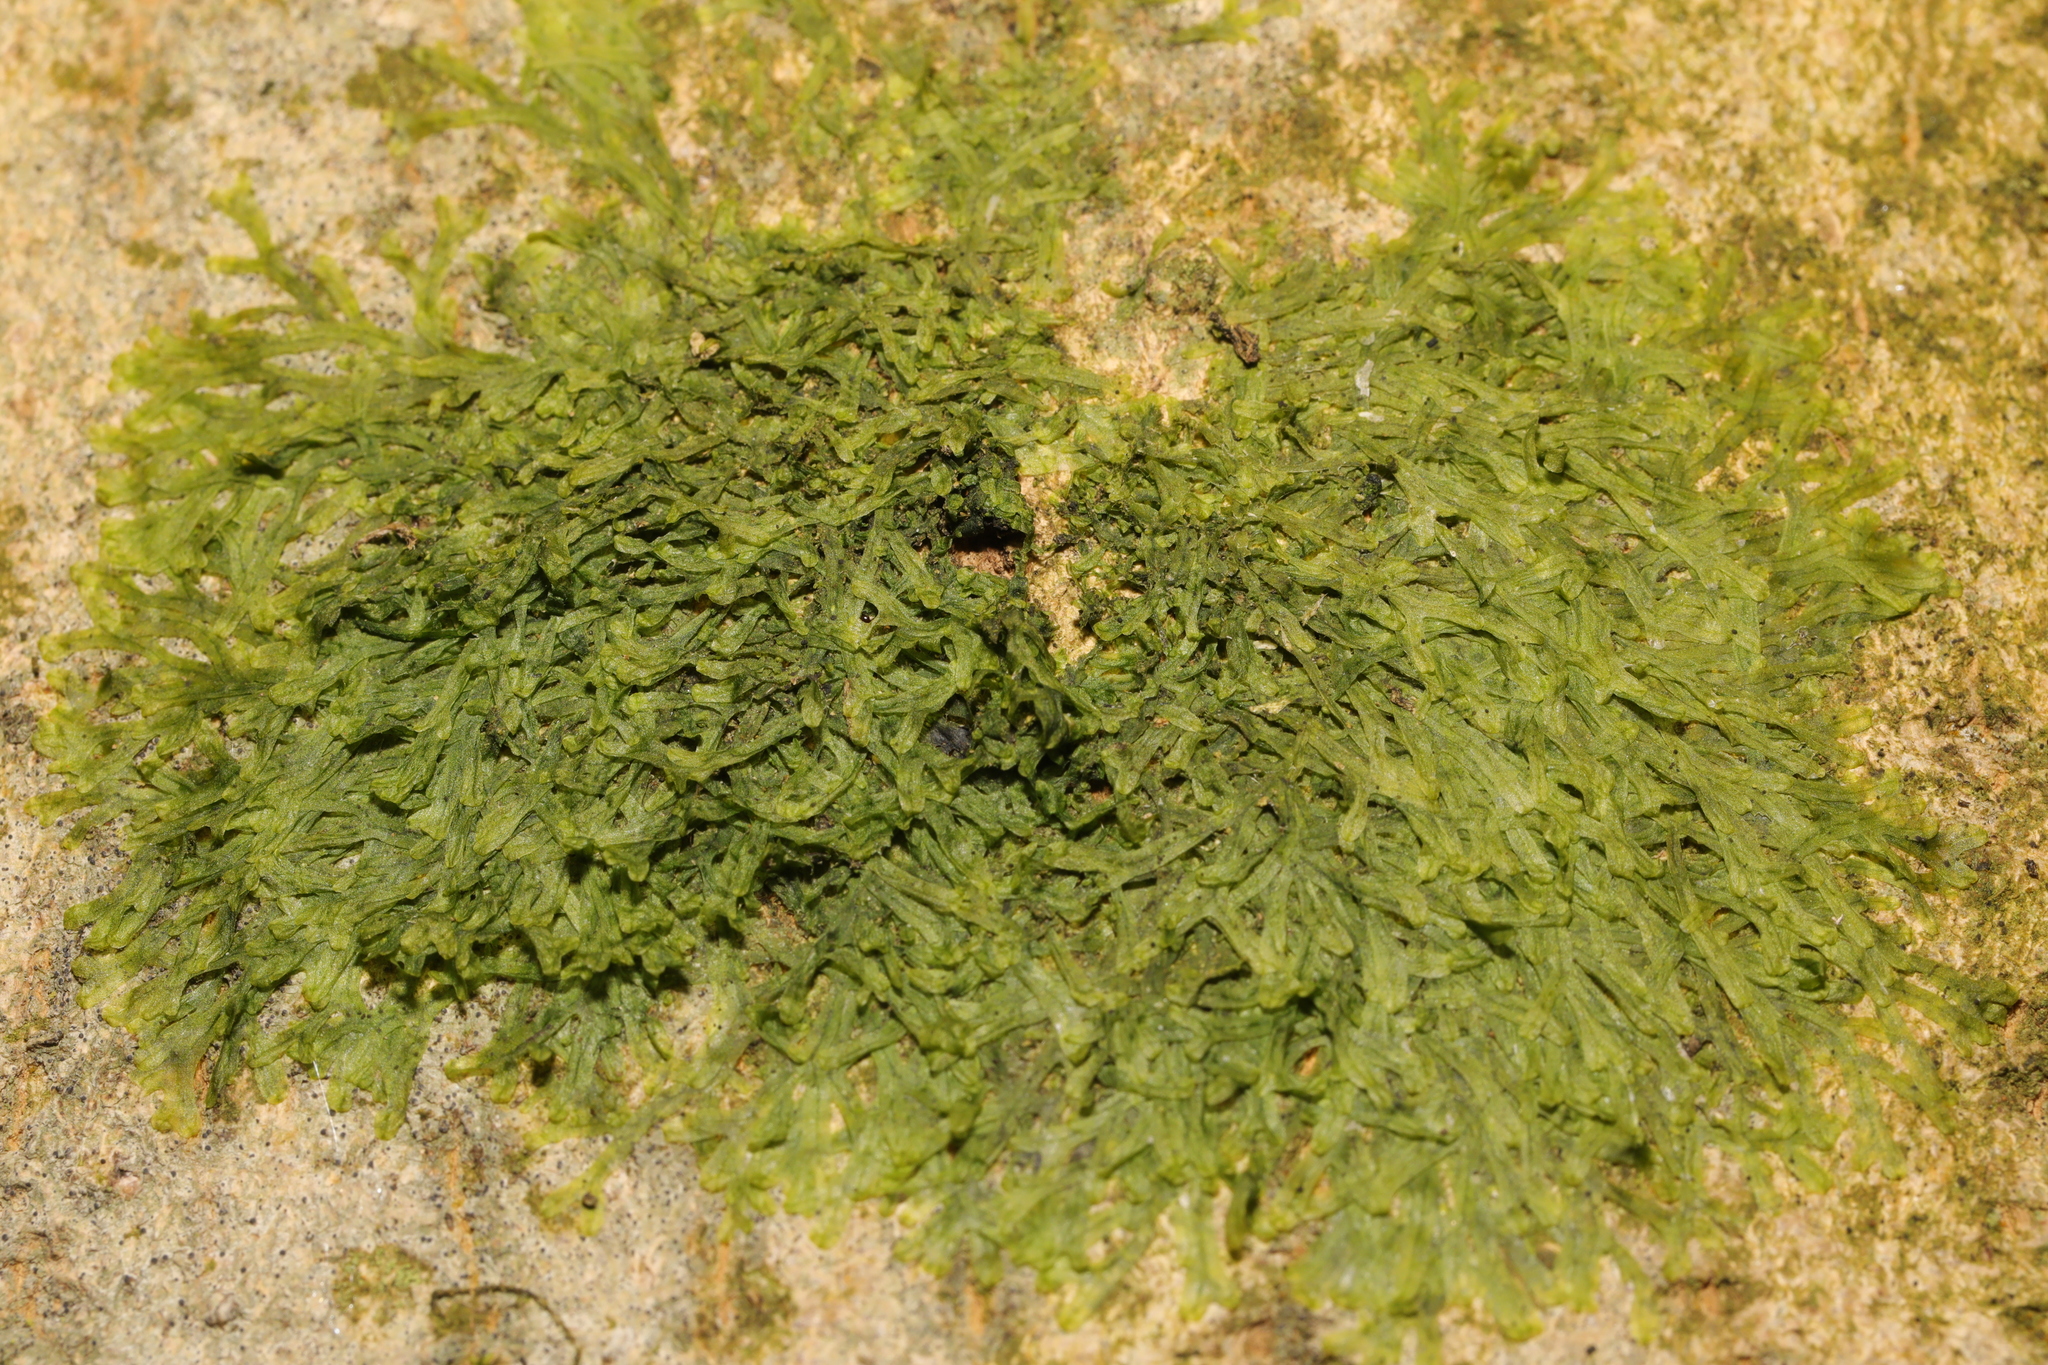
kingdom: Plantae
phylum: Marchantiophyta
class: Jungermanniopsida
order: Metzgeriales
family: Metzgeriaceae
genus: Metzgeria
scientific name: Metzgeria furcata
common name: Forked veilwort
